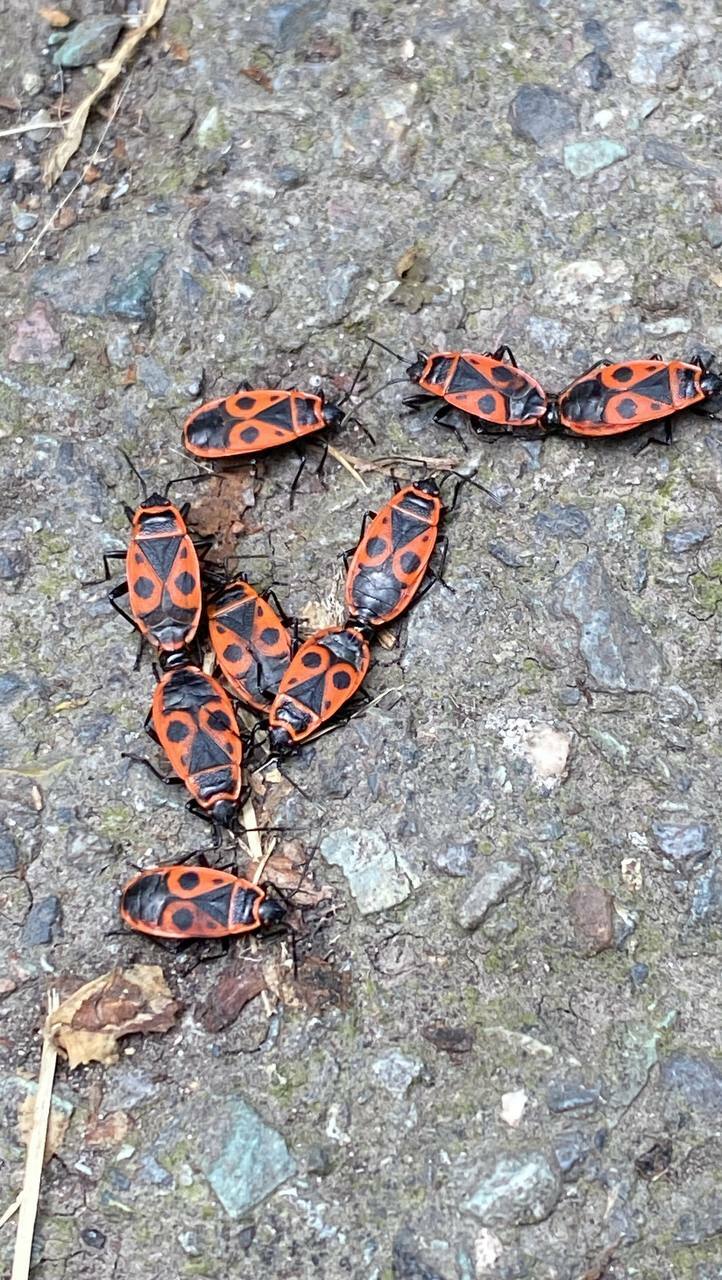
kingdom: Animalia
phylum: Arthropoda
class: Insecta
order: Hemiptera
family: Pyrrhocoridae
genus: Pyrrhocoris
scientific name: Pyrrhocoris apterus
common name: Firebug
